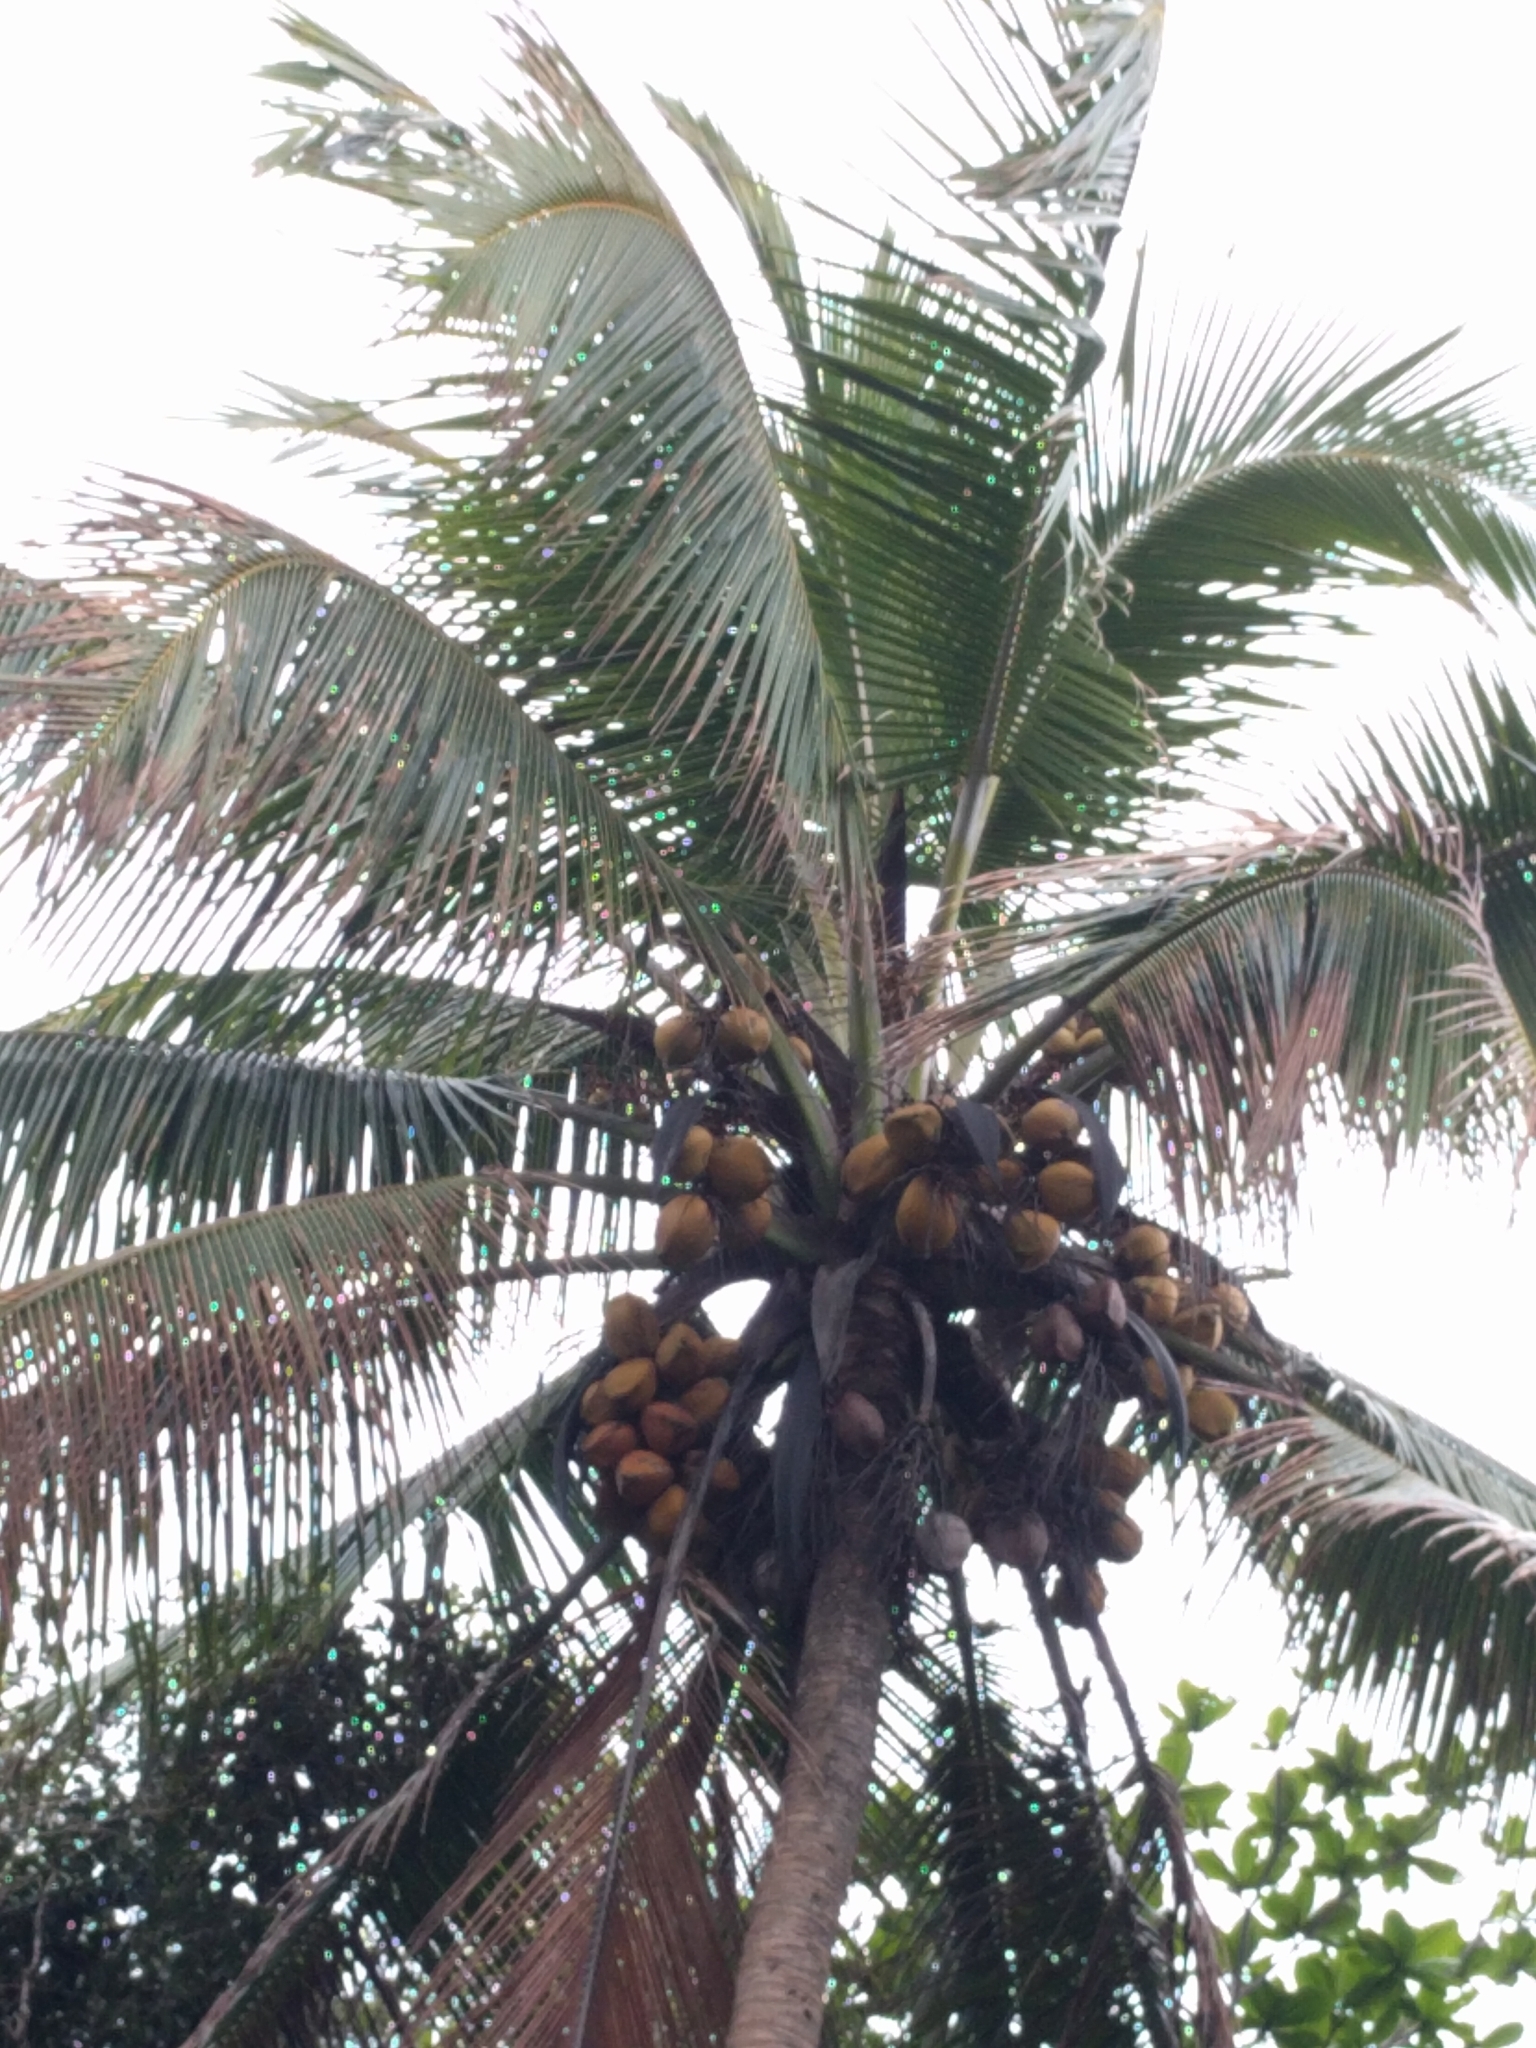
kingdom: Plantae
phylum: Tracheophyta
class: Liliopsida
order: Arecales
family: Arecaceae
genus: Cocos
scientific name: Cocos nucifera
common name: Coconut palm
